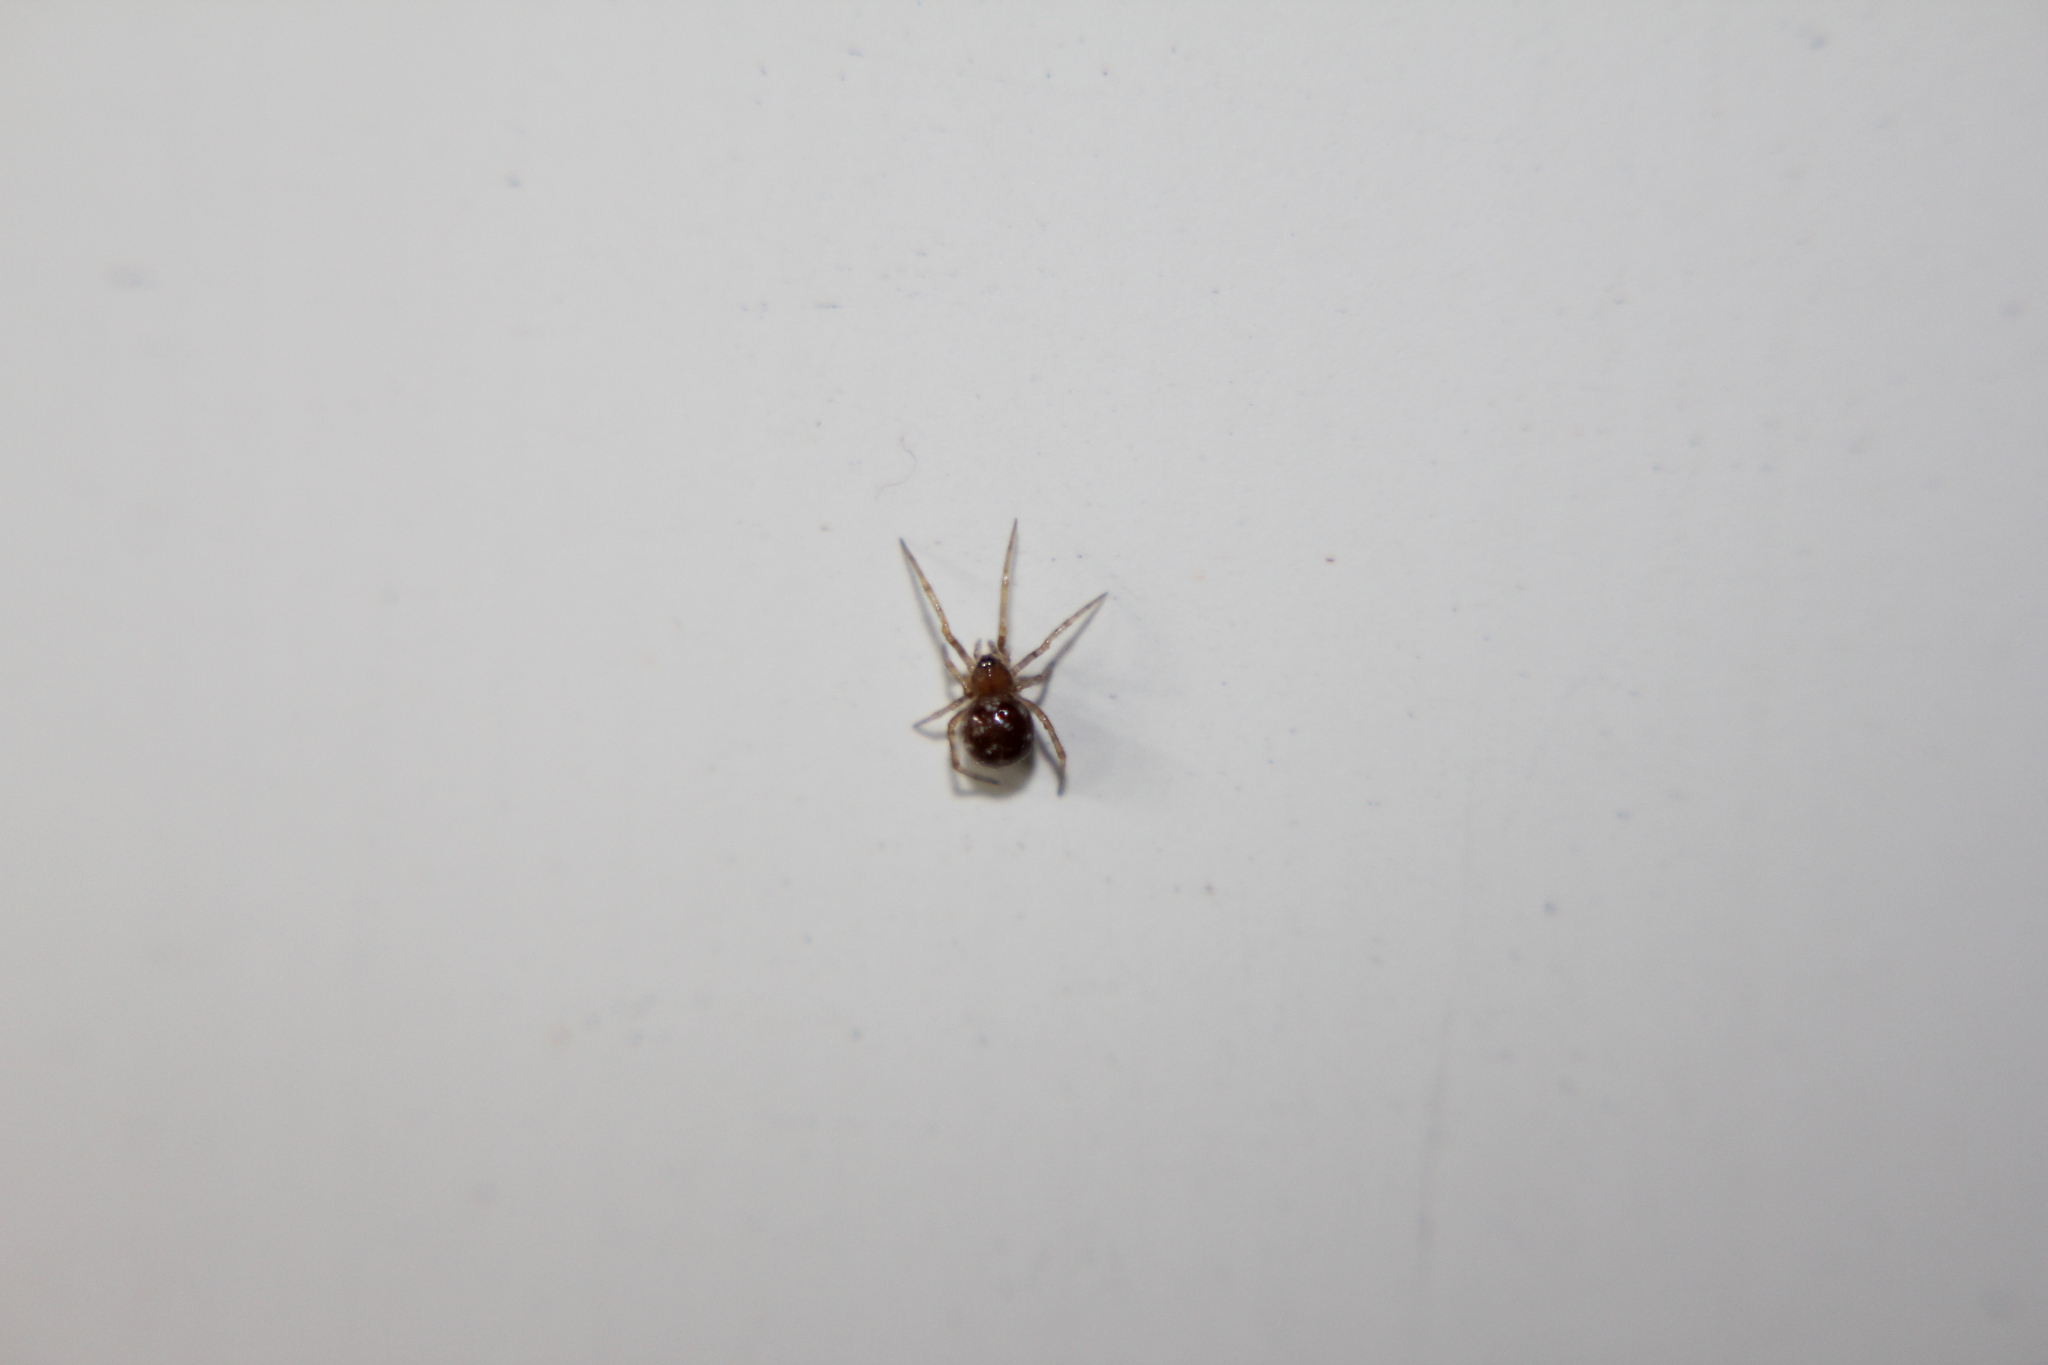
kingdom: Animalia
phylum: Arthropoda
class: Arachnida
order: Araneae
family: Theridiidae
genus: Steatoda
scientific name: Steatoda triangulosa
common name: Triangulate bud spider
